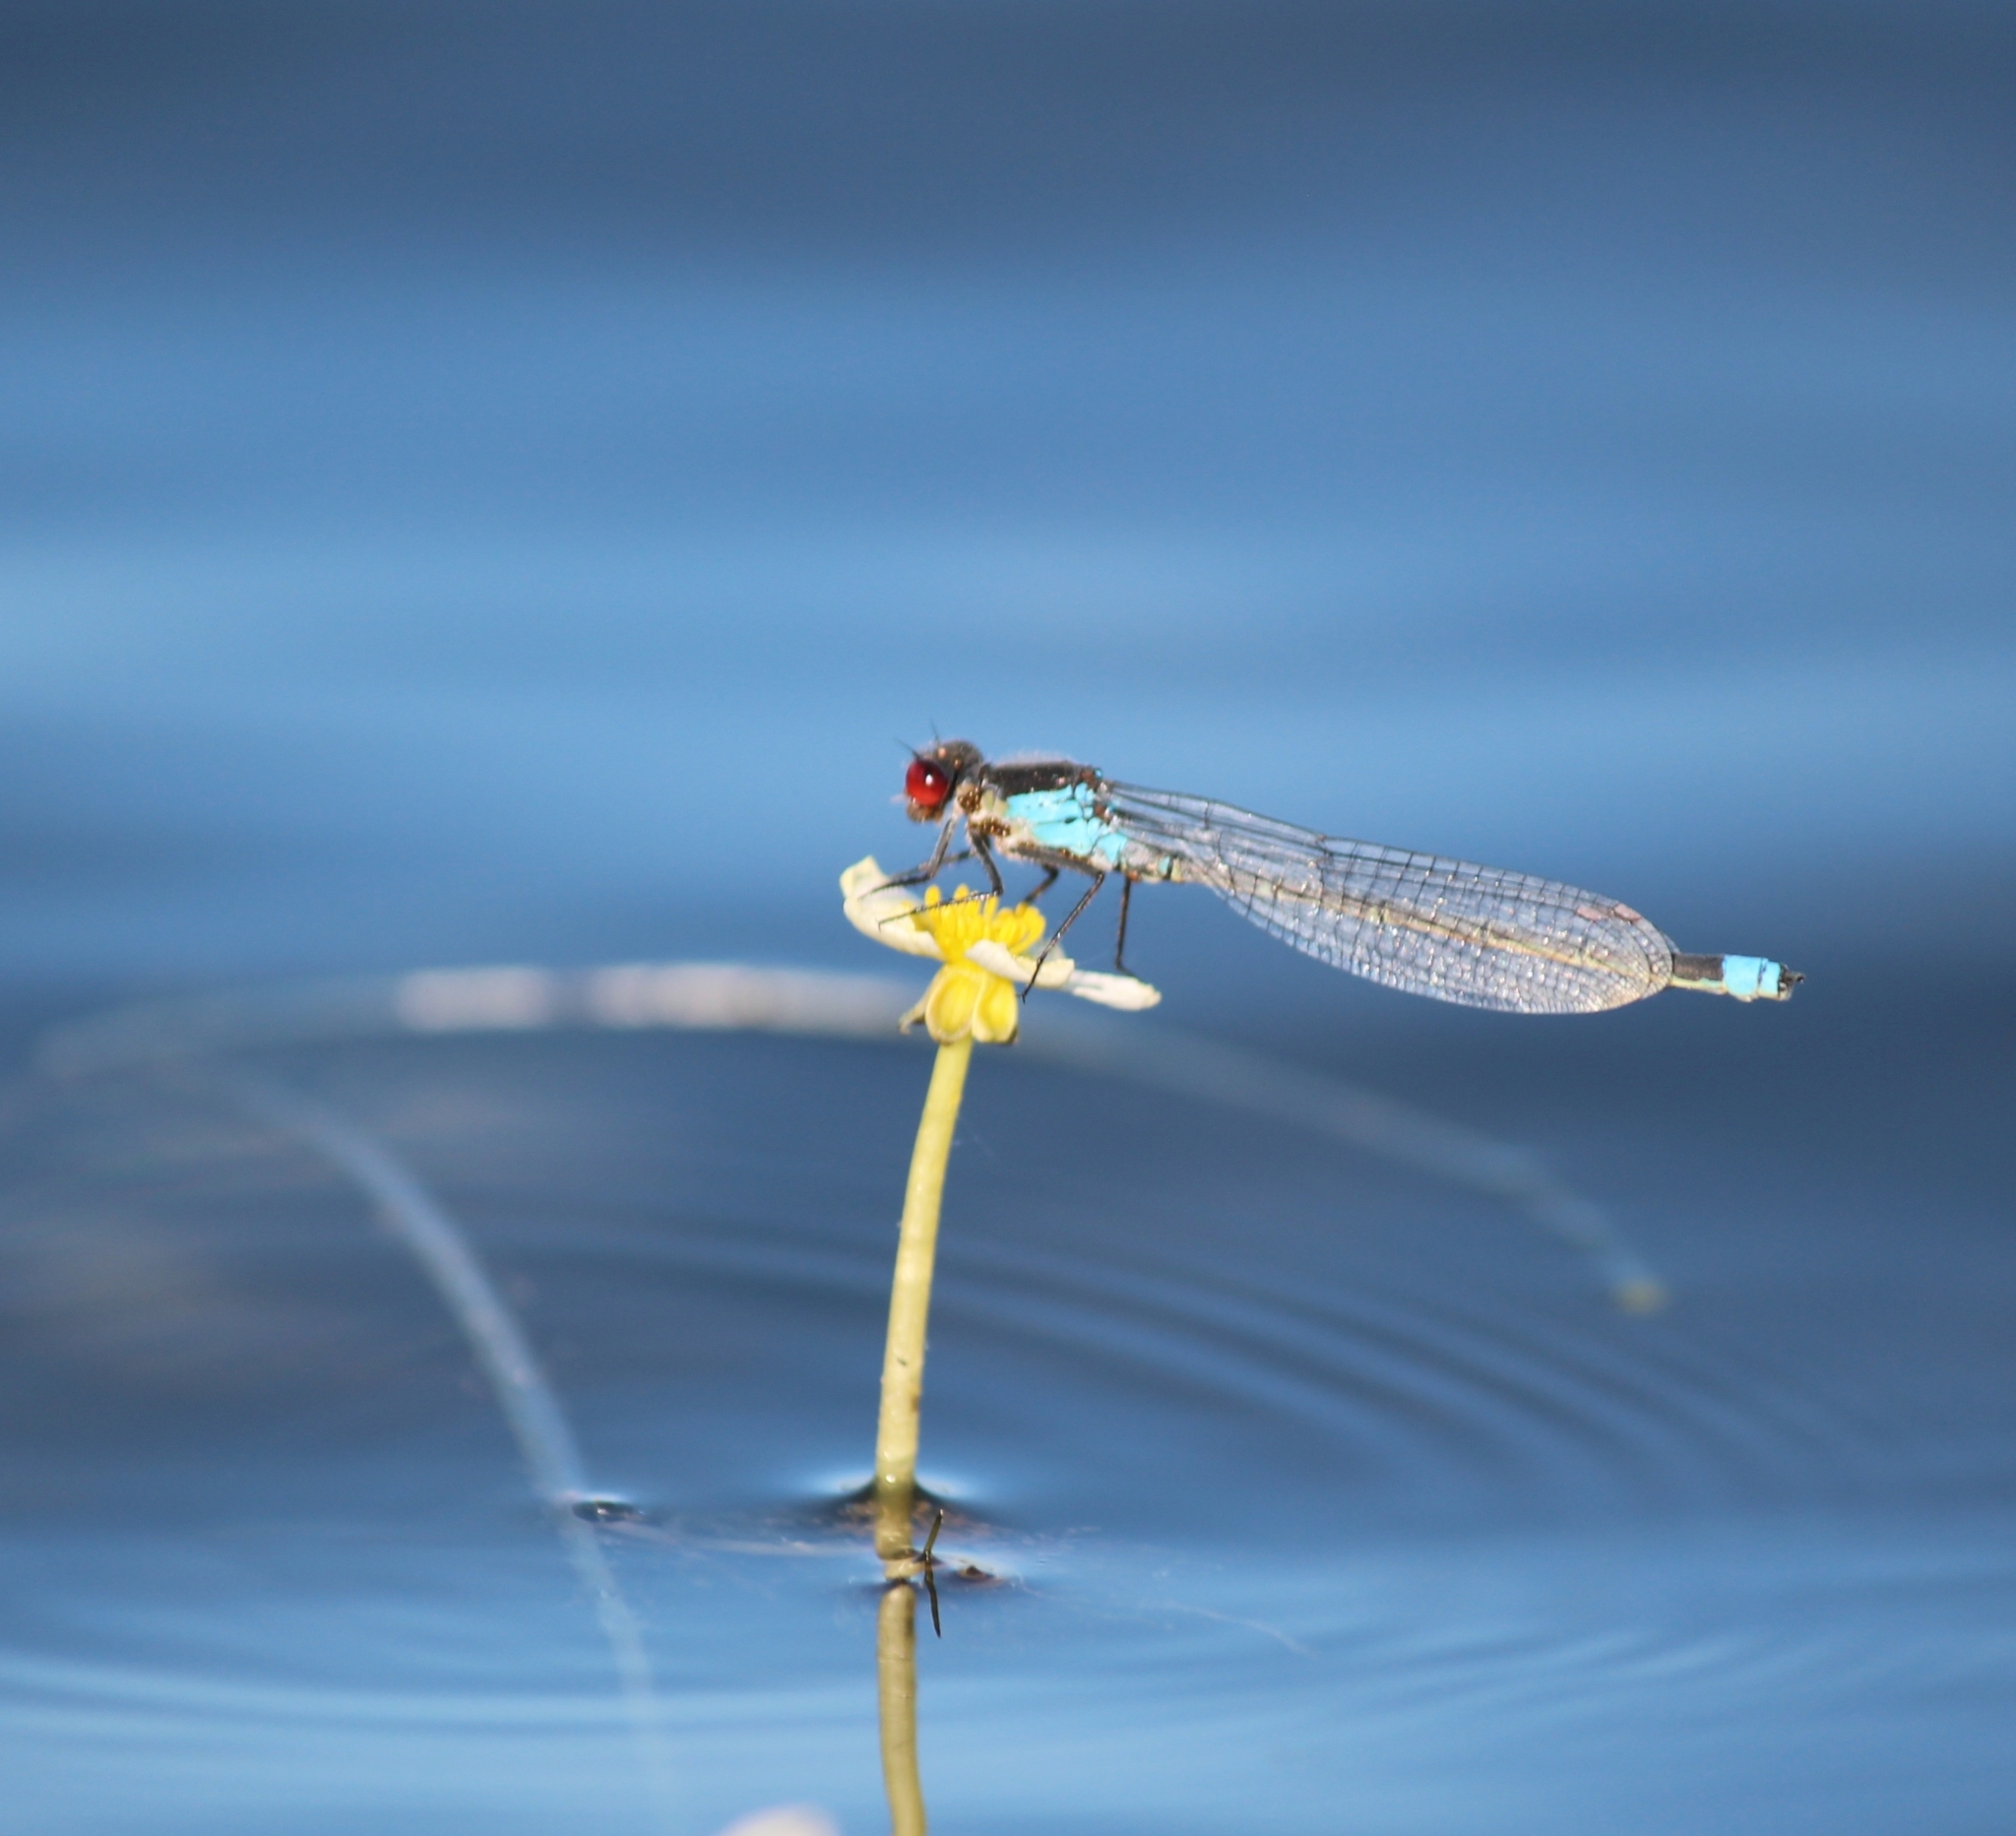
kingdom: Animalia
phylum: Arthropoda
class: Insecta
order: Odonata
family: Coenagrionidae
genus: Erythromma
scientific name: Erythromma najas
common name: Red-eyed damselfly
